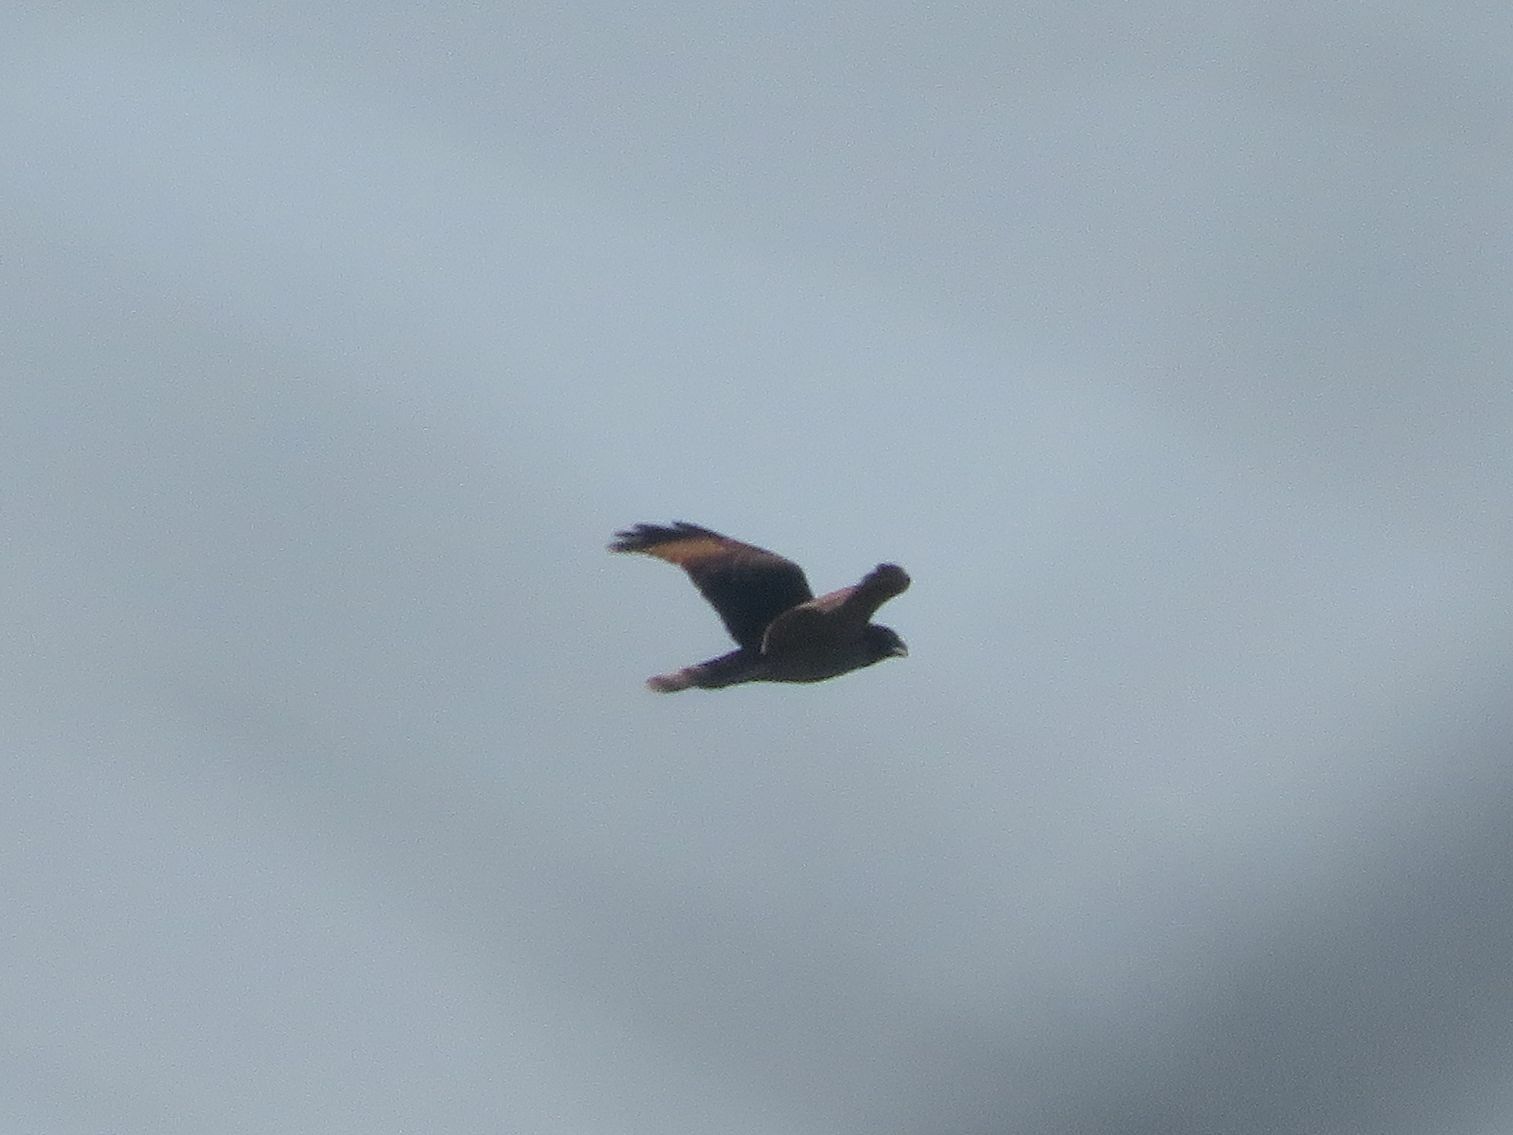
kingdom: Animalia
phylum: Chordata
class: Aves
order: Accipitriformes
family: Accipitridae
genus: Rupornis
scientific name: Rupornis magnirostris
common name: Roadside hawk
